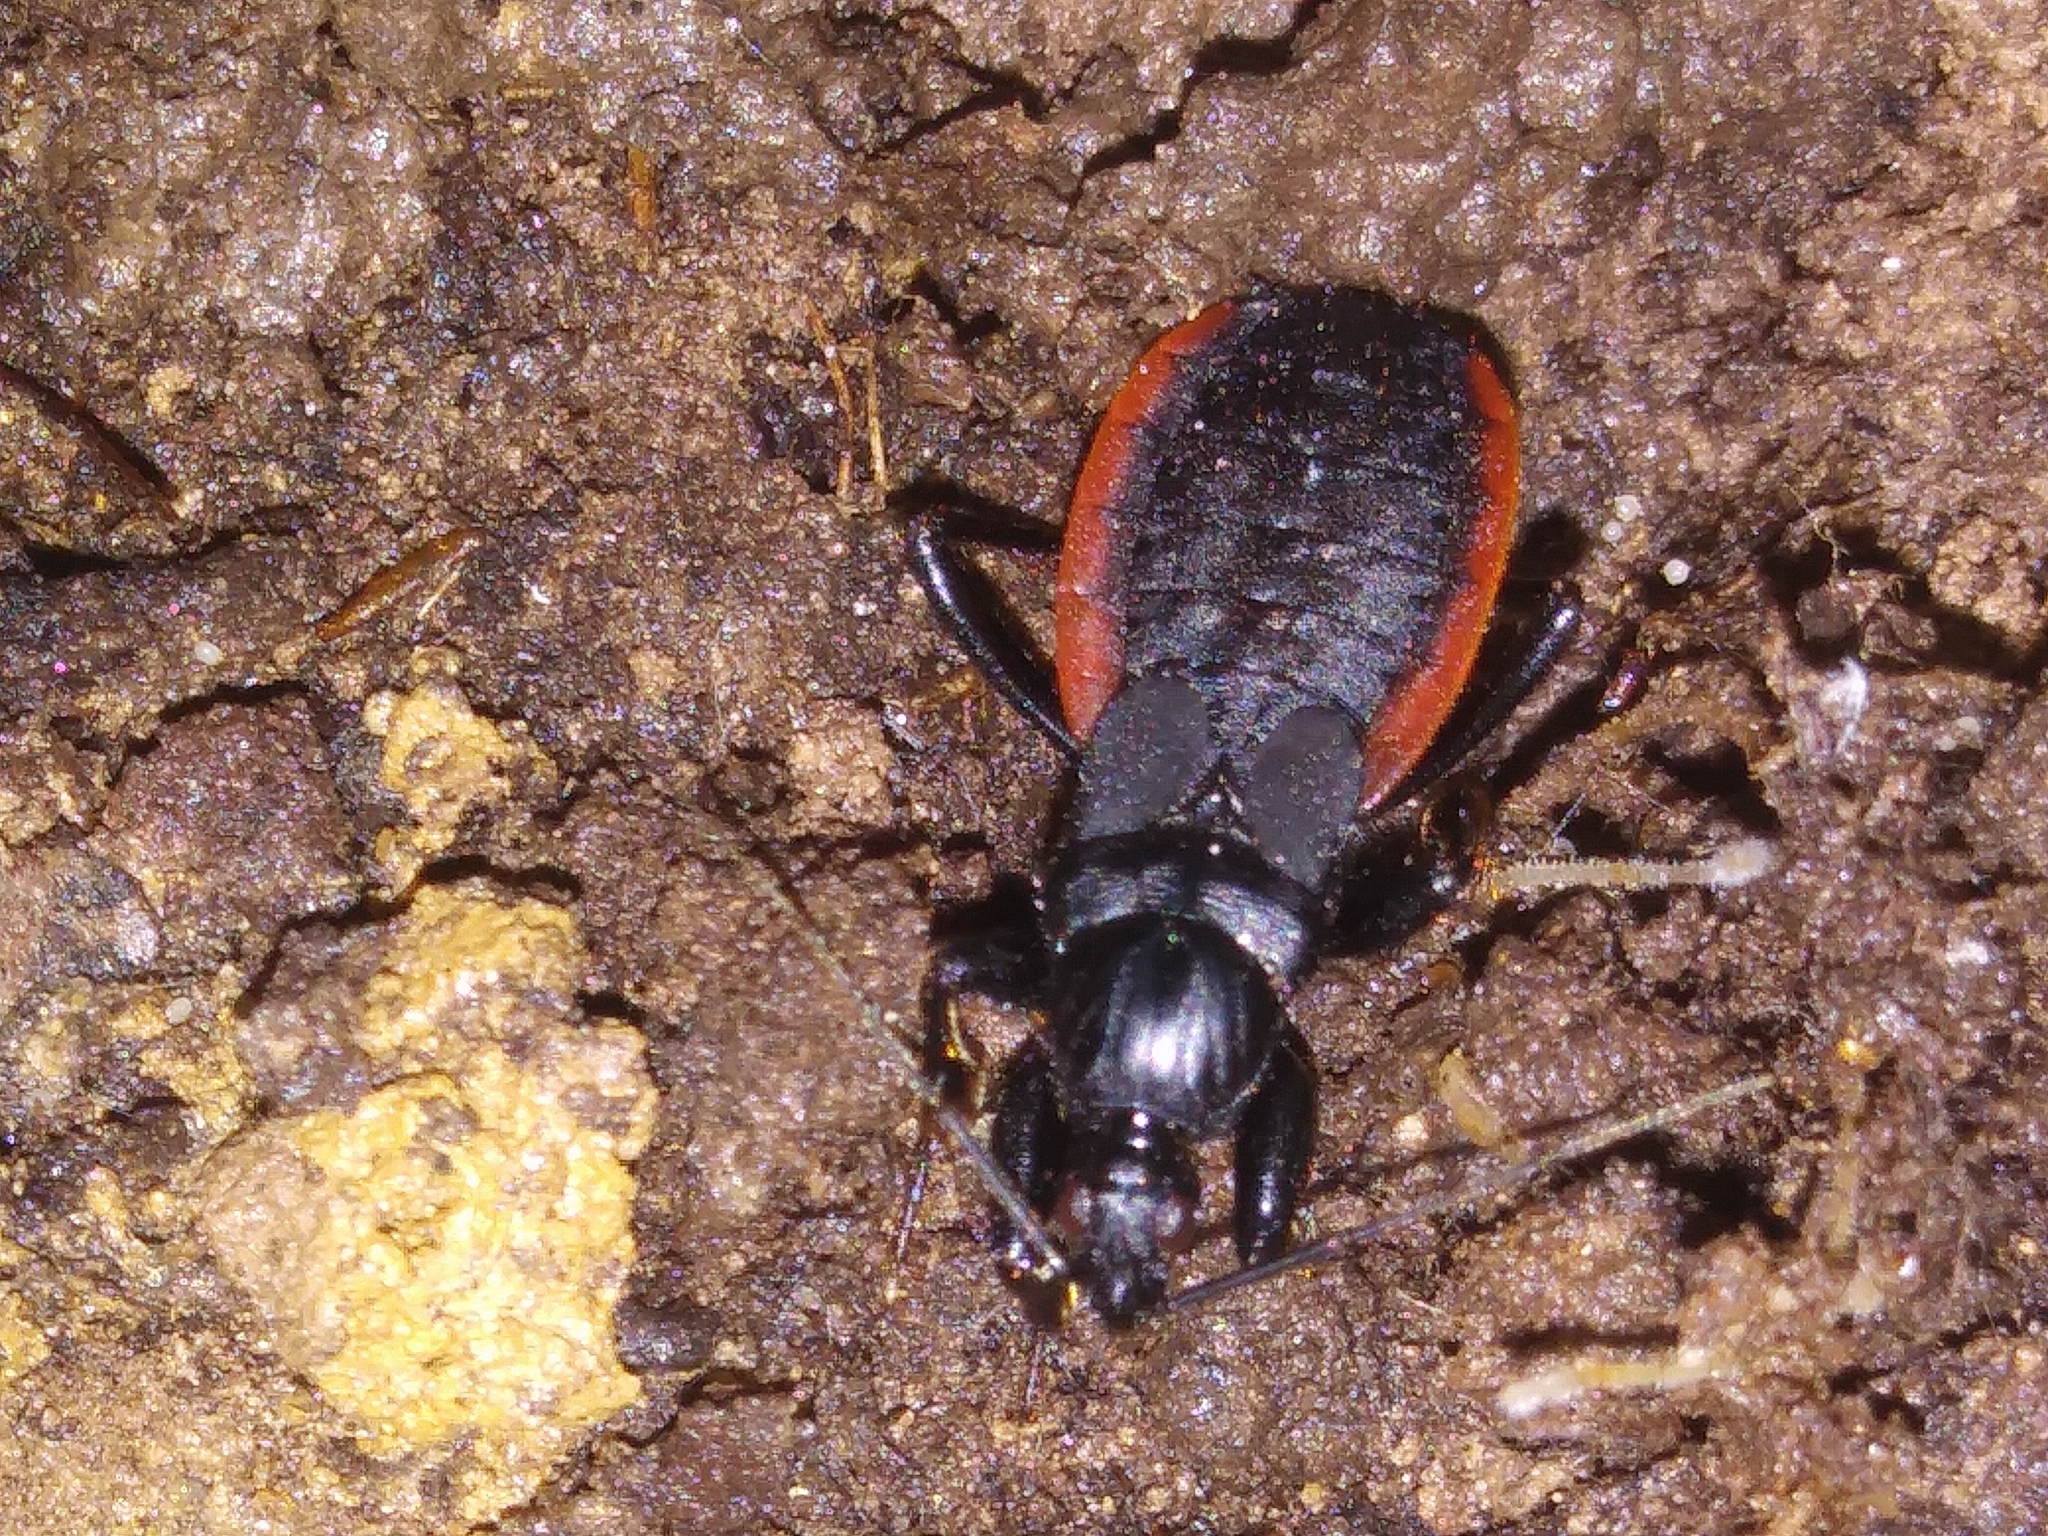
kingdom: Animalia
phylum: Arthropoda
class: Insecta
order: Hemiptera
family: Reduviidae
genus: Melanolestes
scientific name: Melanolestes picipes
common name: Assassin bug
